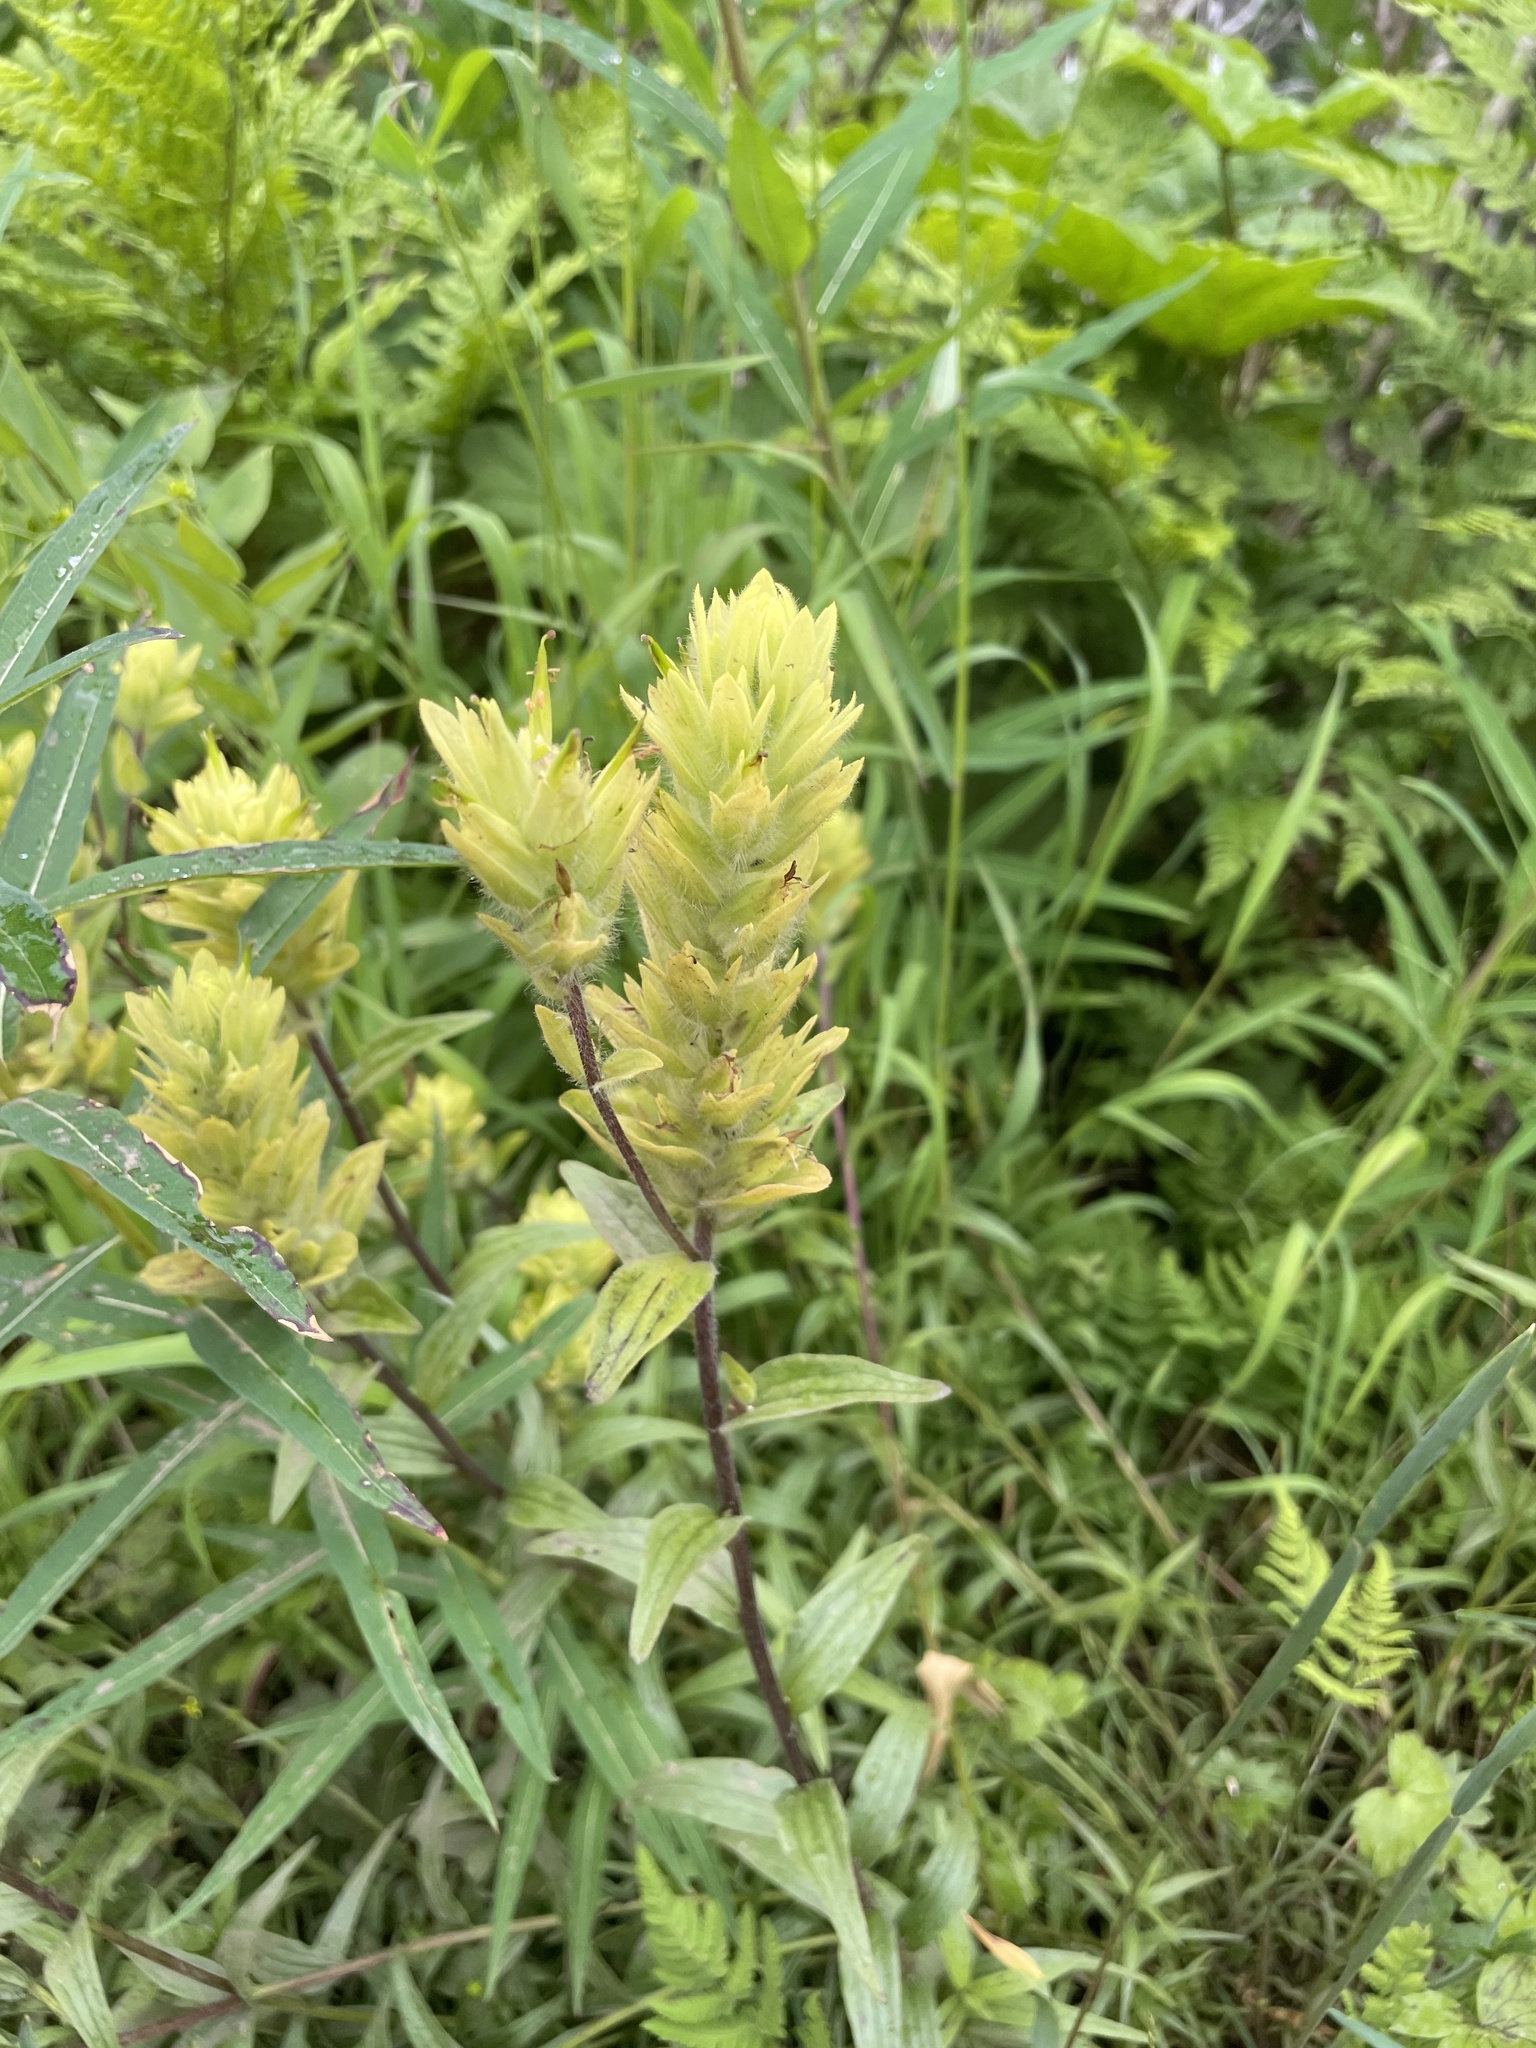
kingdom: Plantae
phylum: Tracheophyta
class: Magnoliopsida
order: Lamiales
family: Orobanchaceae
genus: Castilleja
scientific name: Castilleja unalaschcensis
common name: Unalaska paintbrush
